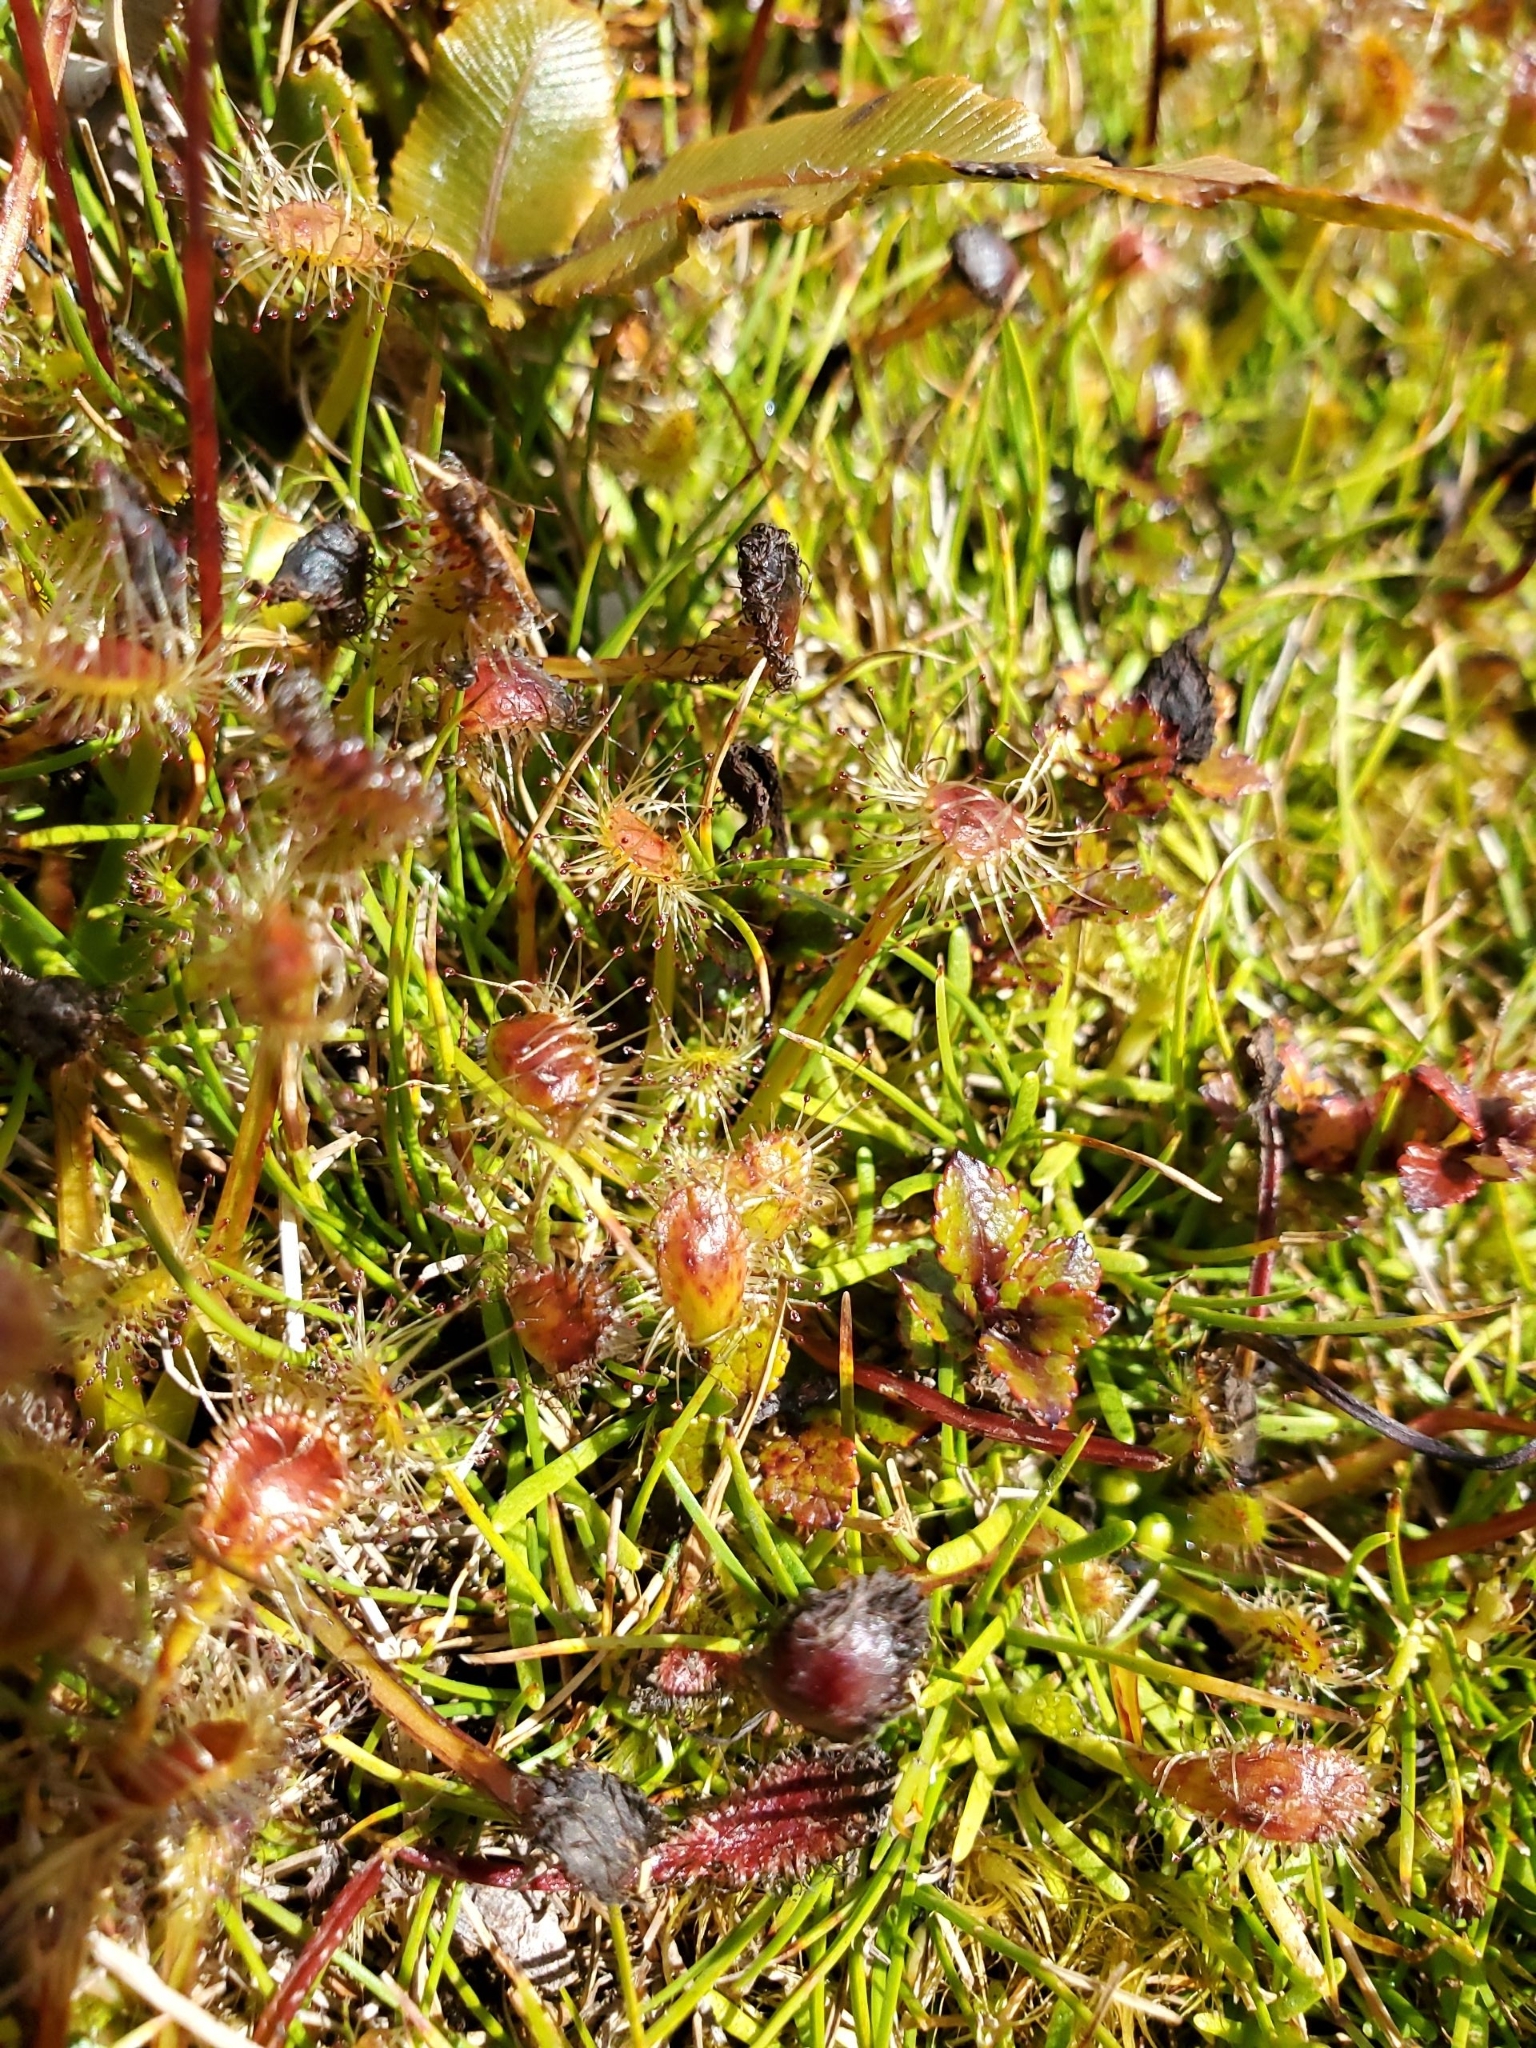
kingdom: Plantae
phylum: Tracheophyta
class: Magnoliopsida
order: Caryophyllales
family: Droseraceae
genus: Drosera
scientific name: Drosera stenopetala
